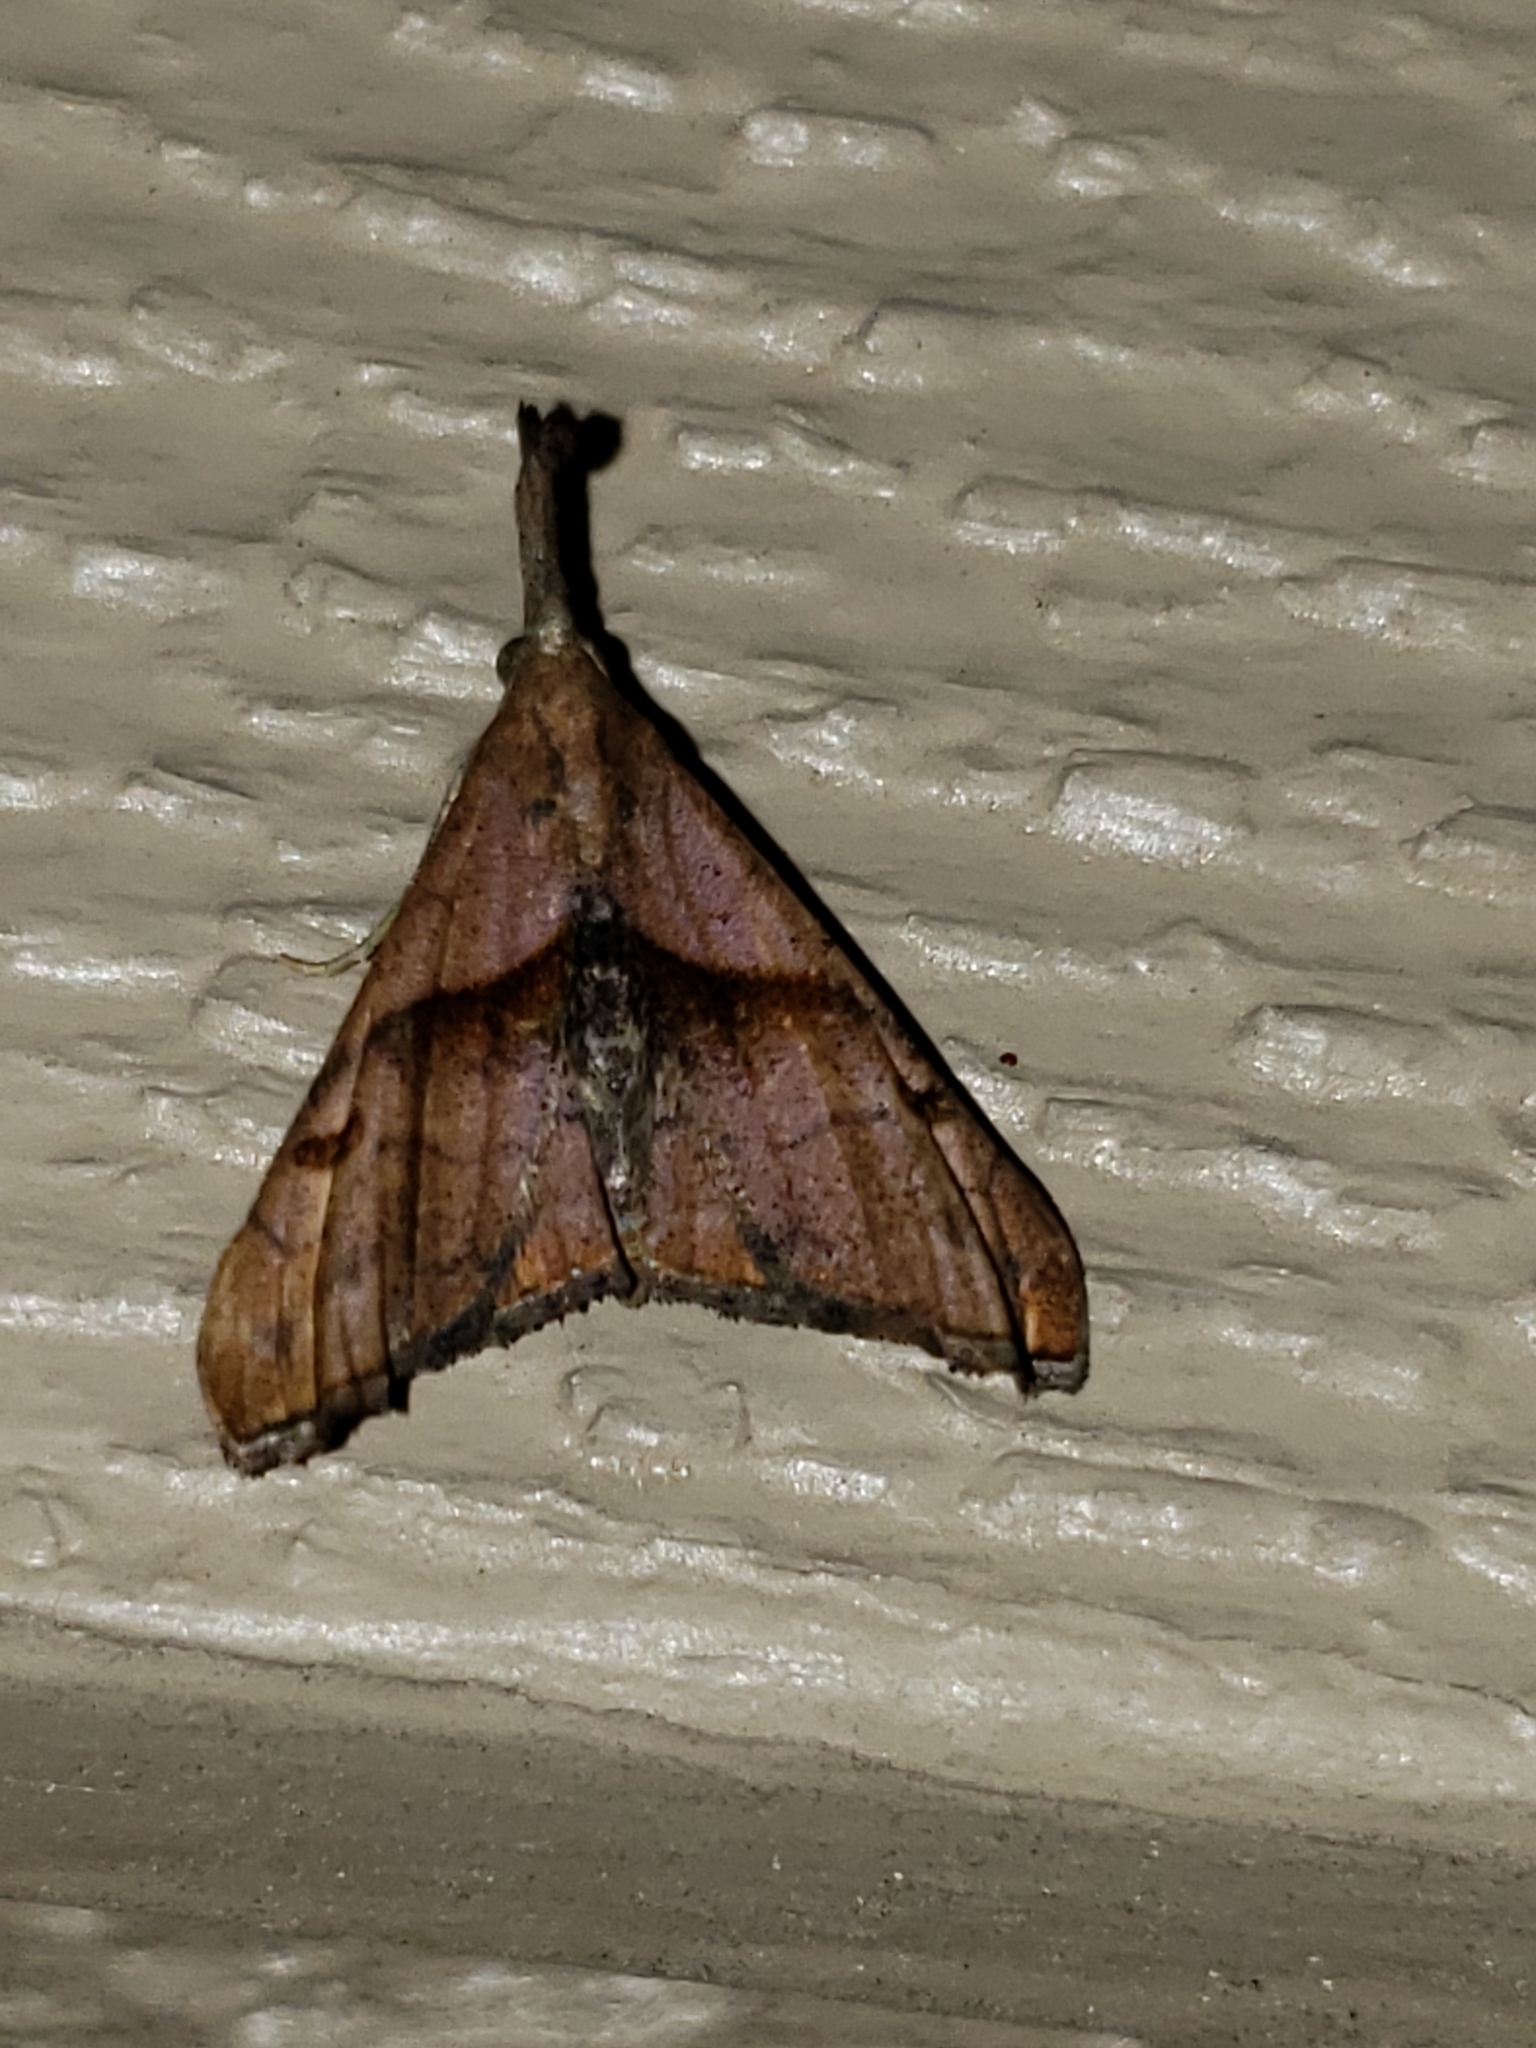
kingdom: Animalia
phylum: Arthropoda
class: Insecta
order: Lepidoptera
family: Erebidae
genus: Palthis
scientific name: Palthis angulalis
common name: Dark-spotted palthis moth
